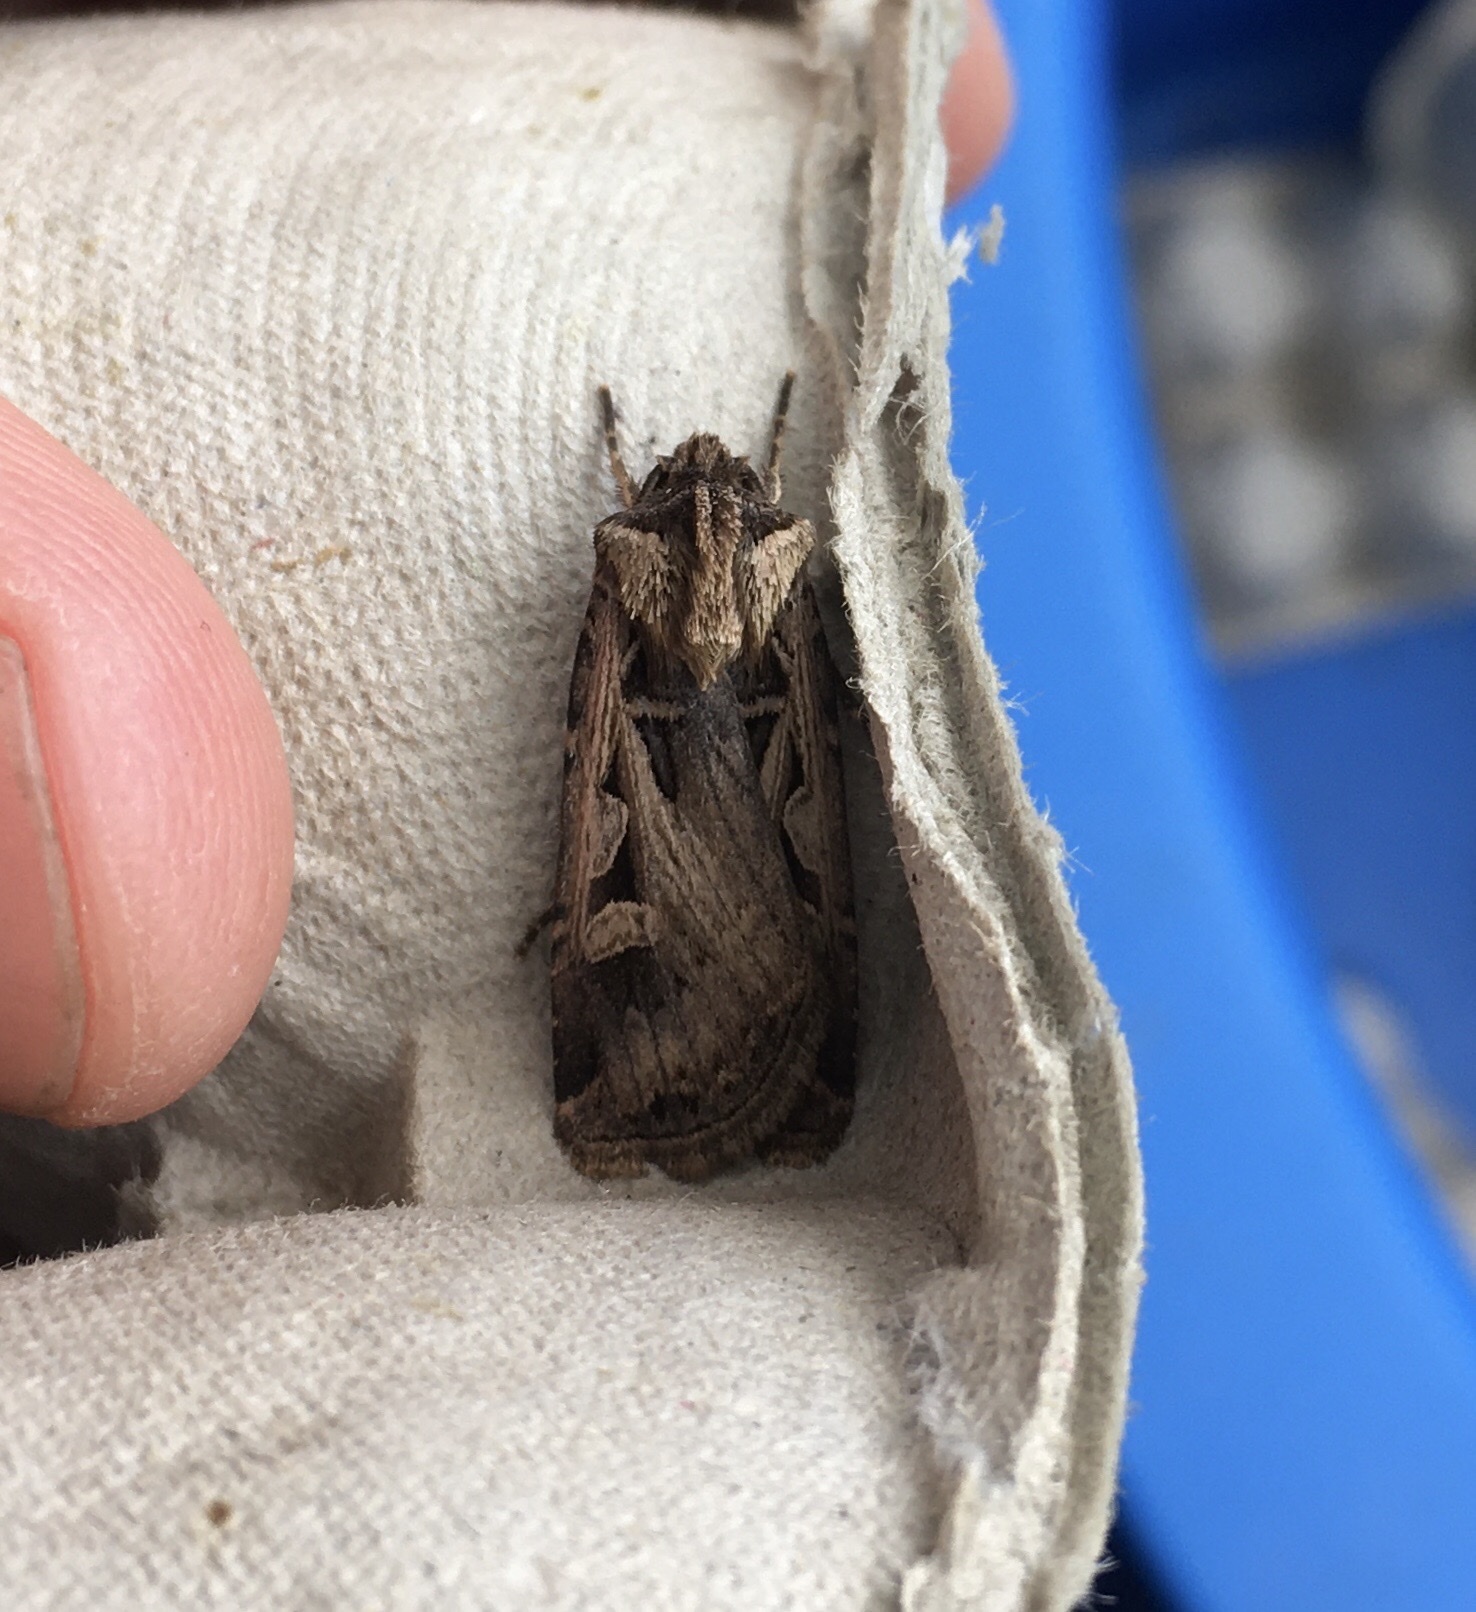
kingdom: Animalia
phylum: Arthropoda
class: Insecta
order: Lepidoptera
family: Noctuidae
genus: Feltia
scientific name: Feltia
